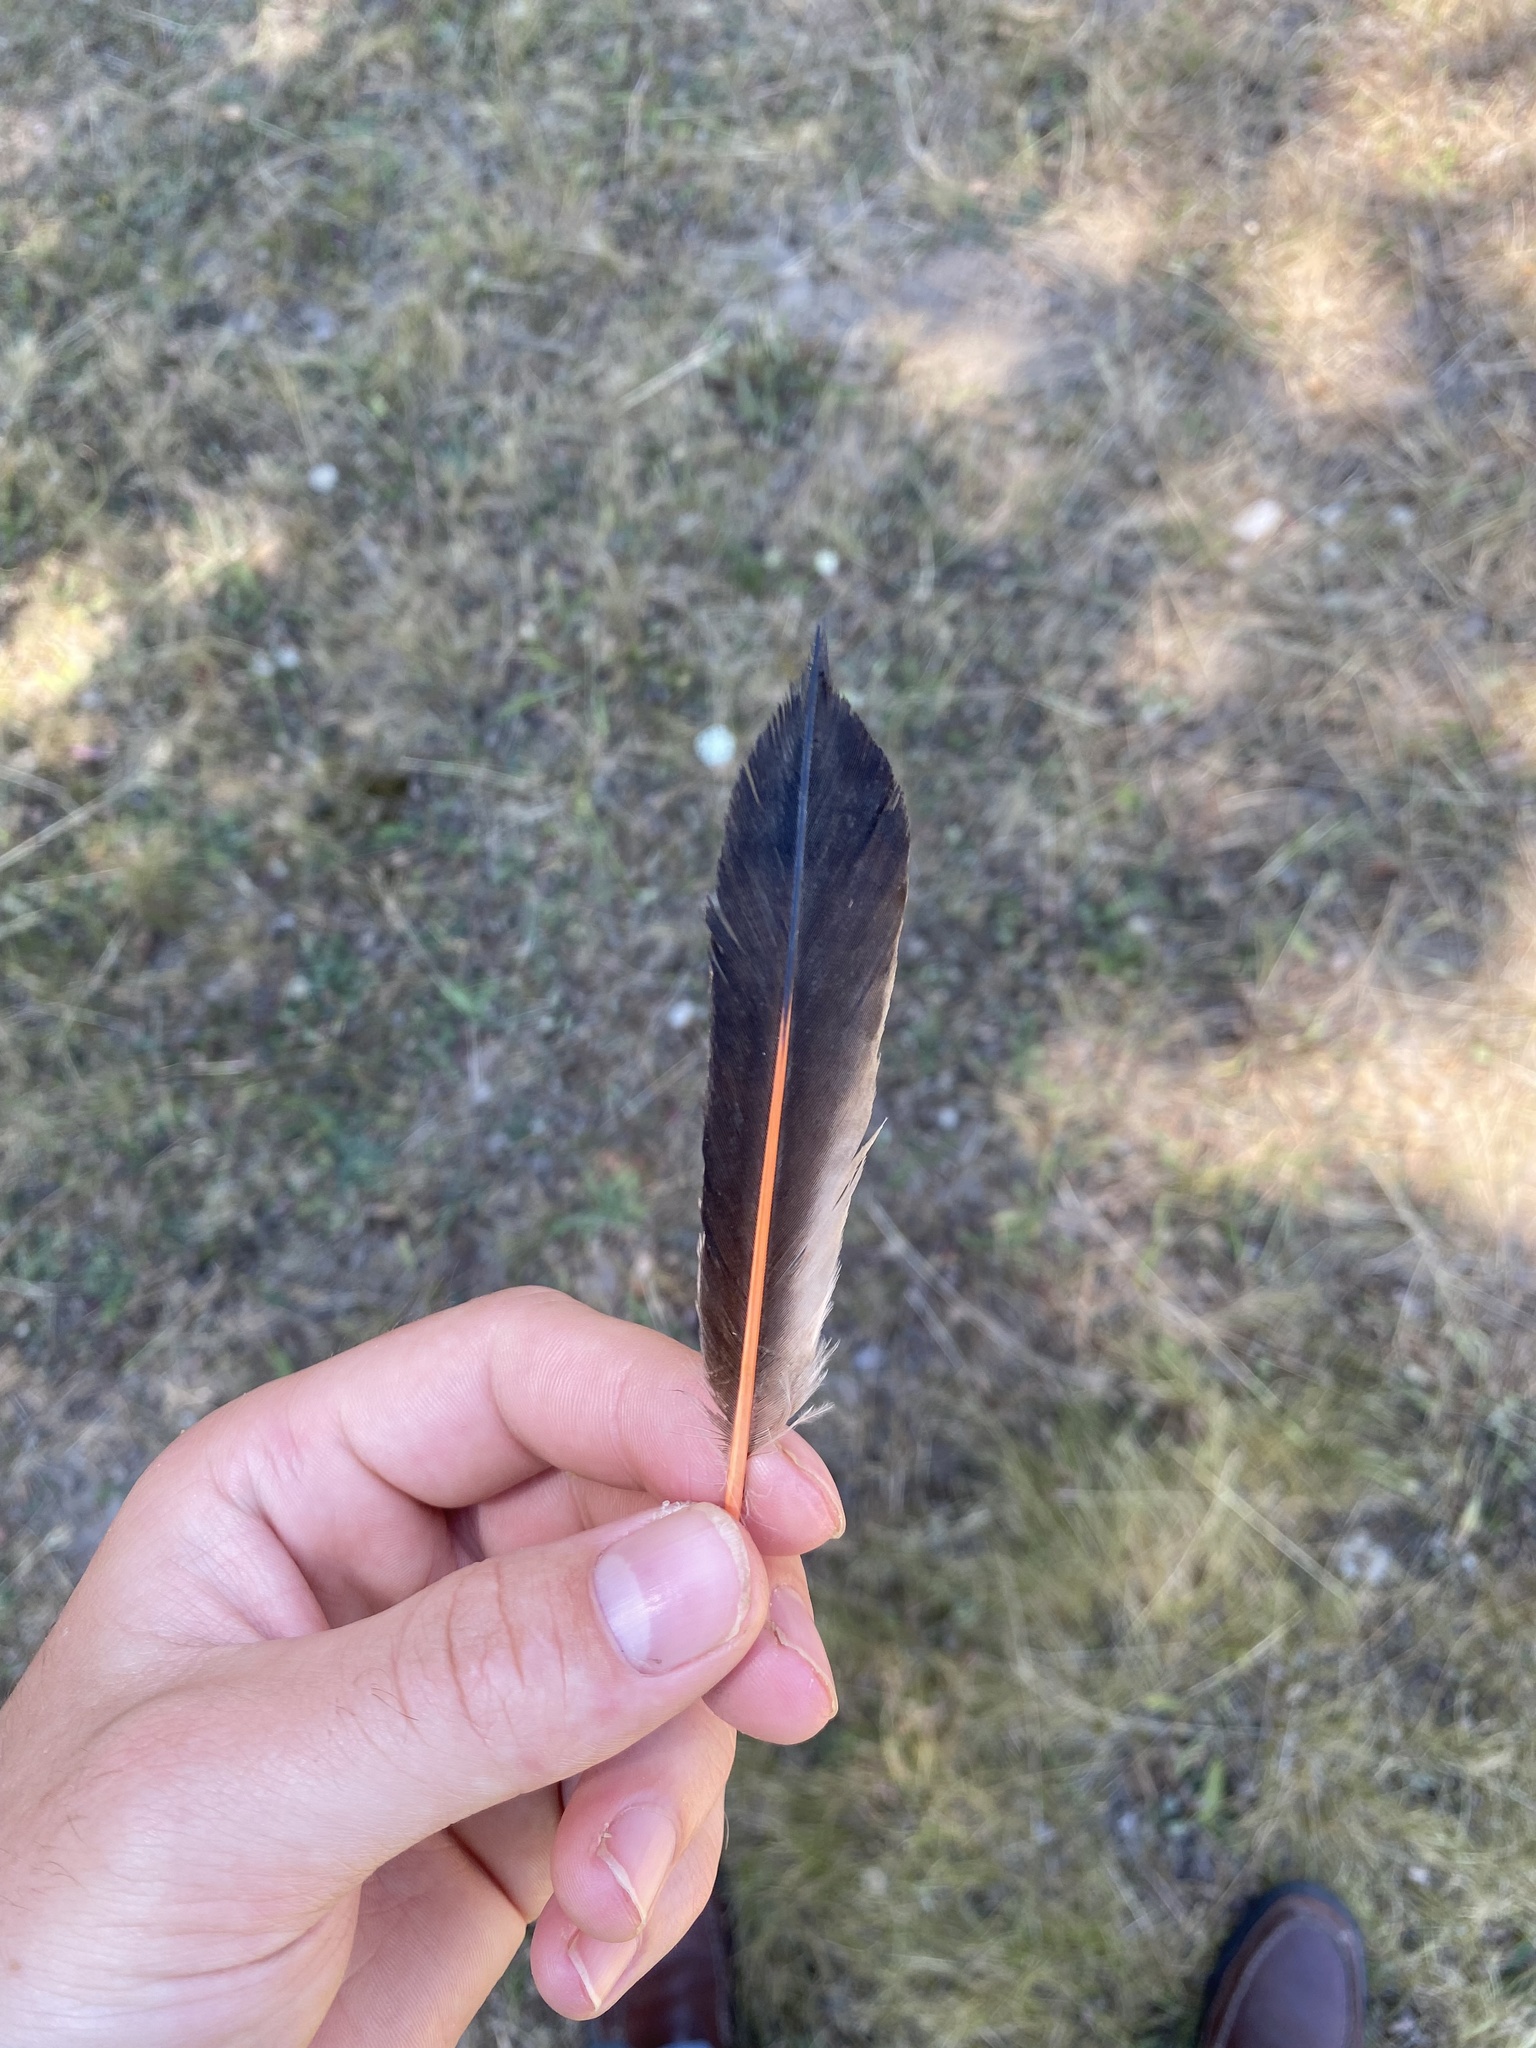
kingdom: Animalia
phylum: Chordata
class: Aves
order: Piciformes
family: Picidae
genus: Colaptes
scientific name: Colaptes auratus
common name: Northern flicker
